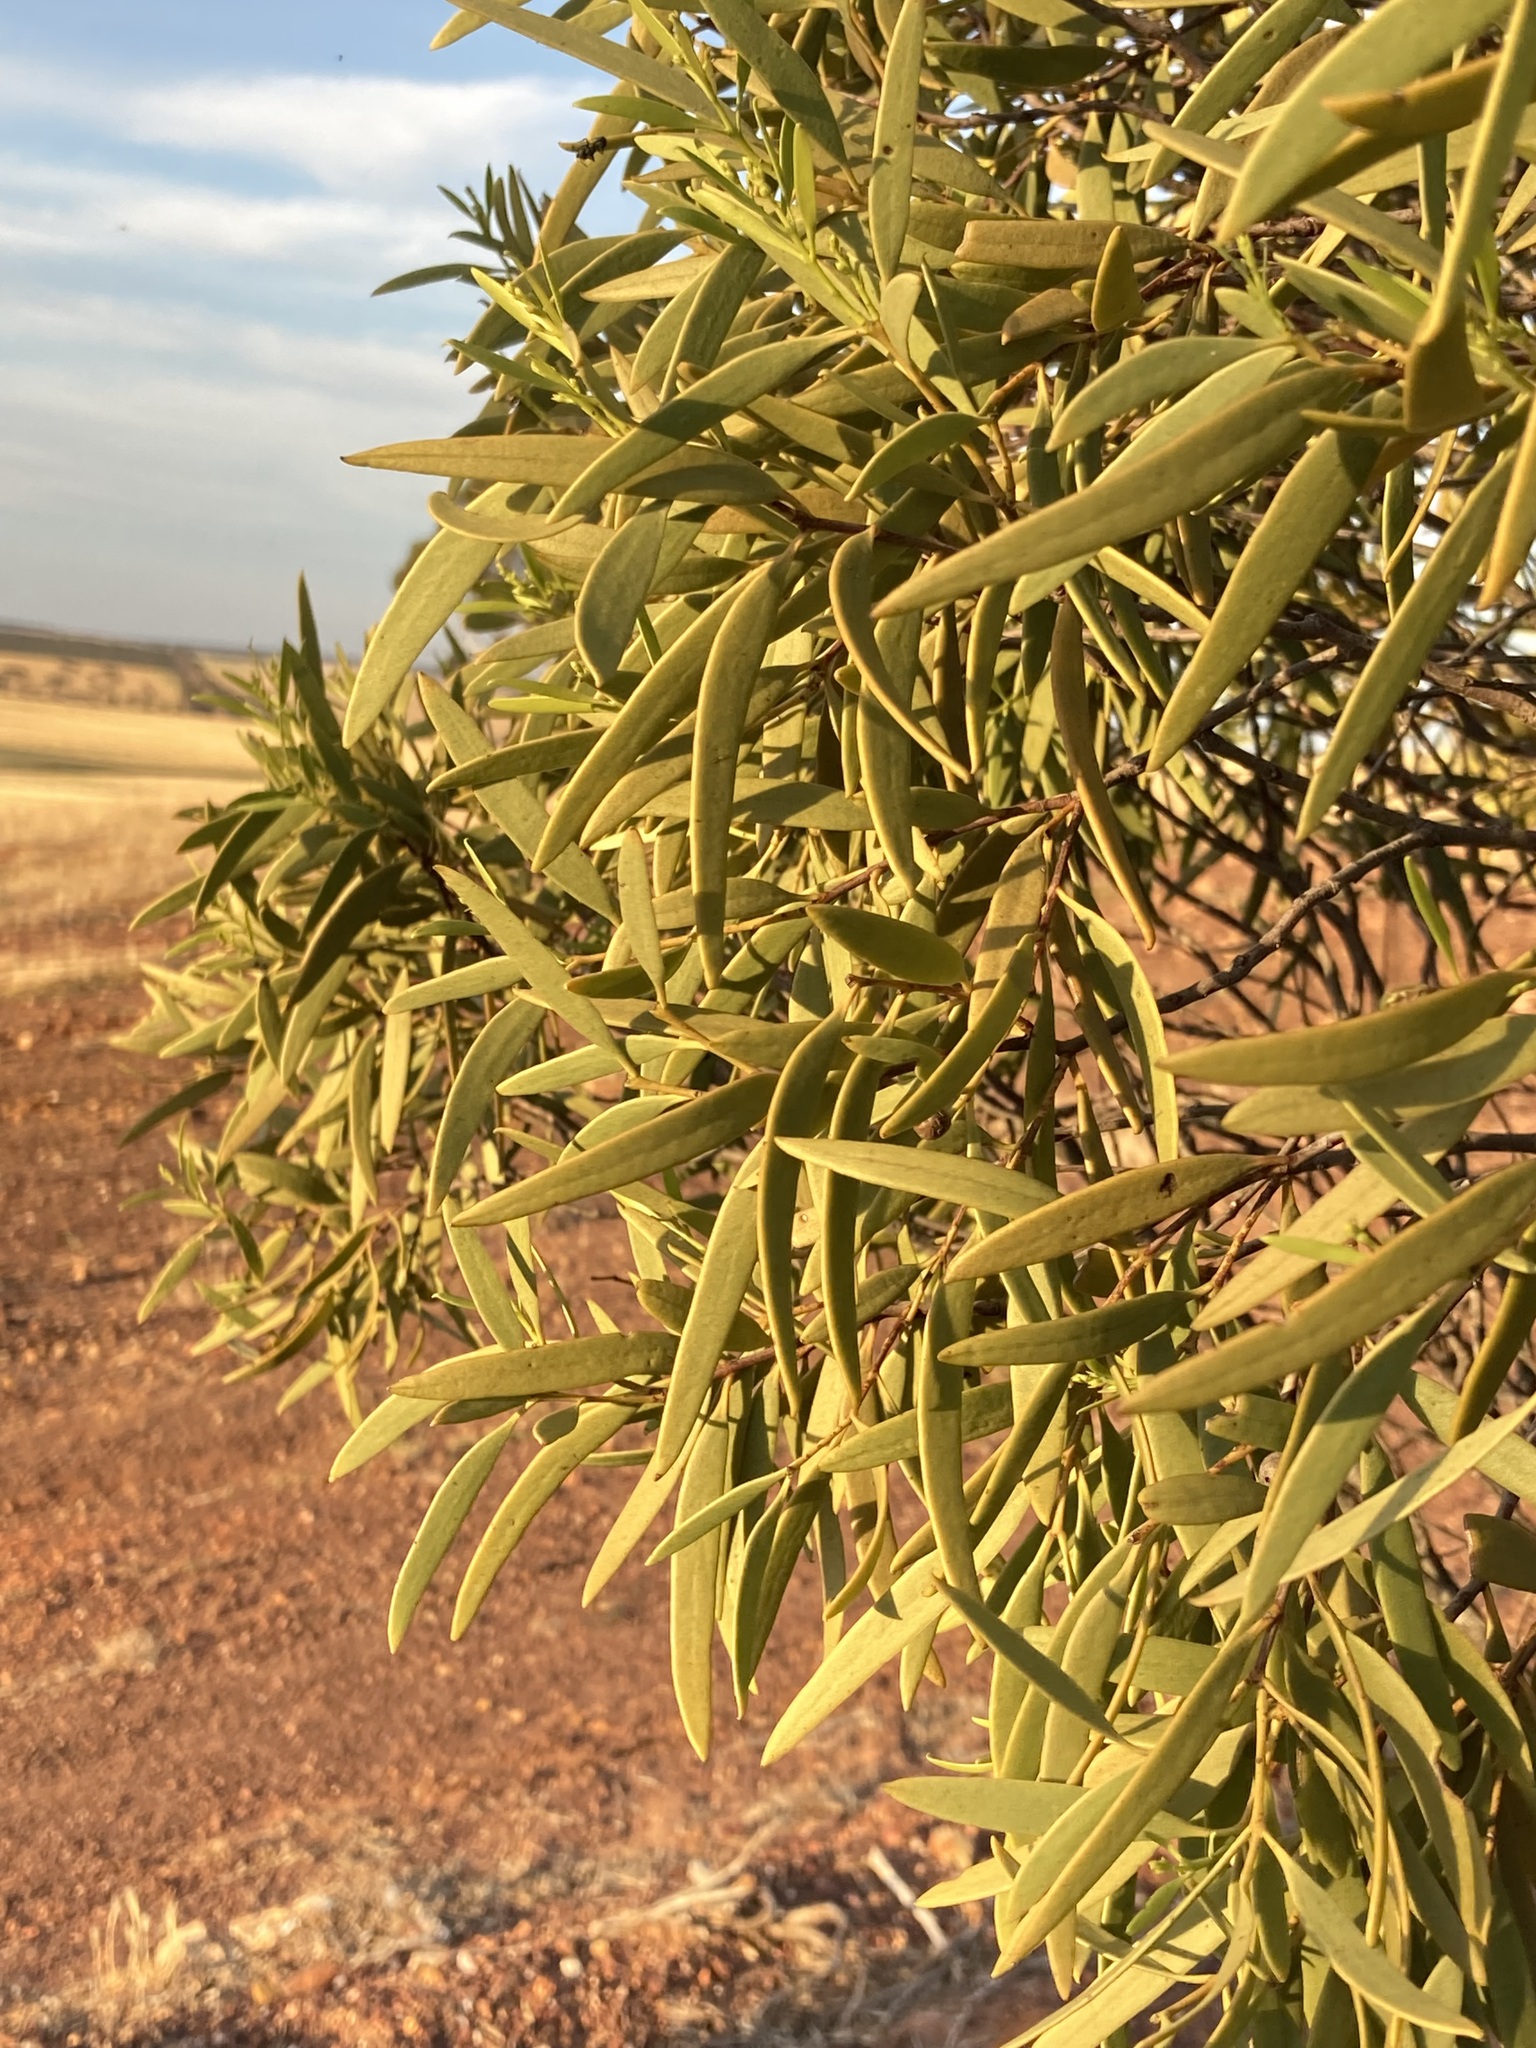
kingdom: Plantae
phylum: Tracheophyta
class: Magnoliopsida
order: Santalales
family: Santalaceae
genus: Santalum
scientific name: Santalum acuminatum
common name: Sweet quandong
